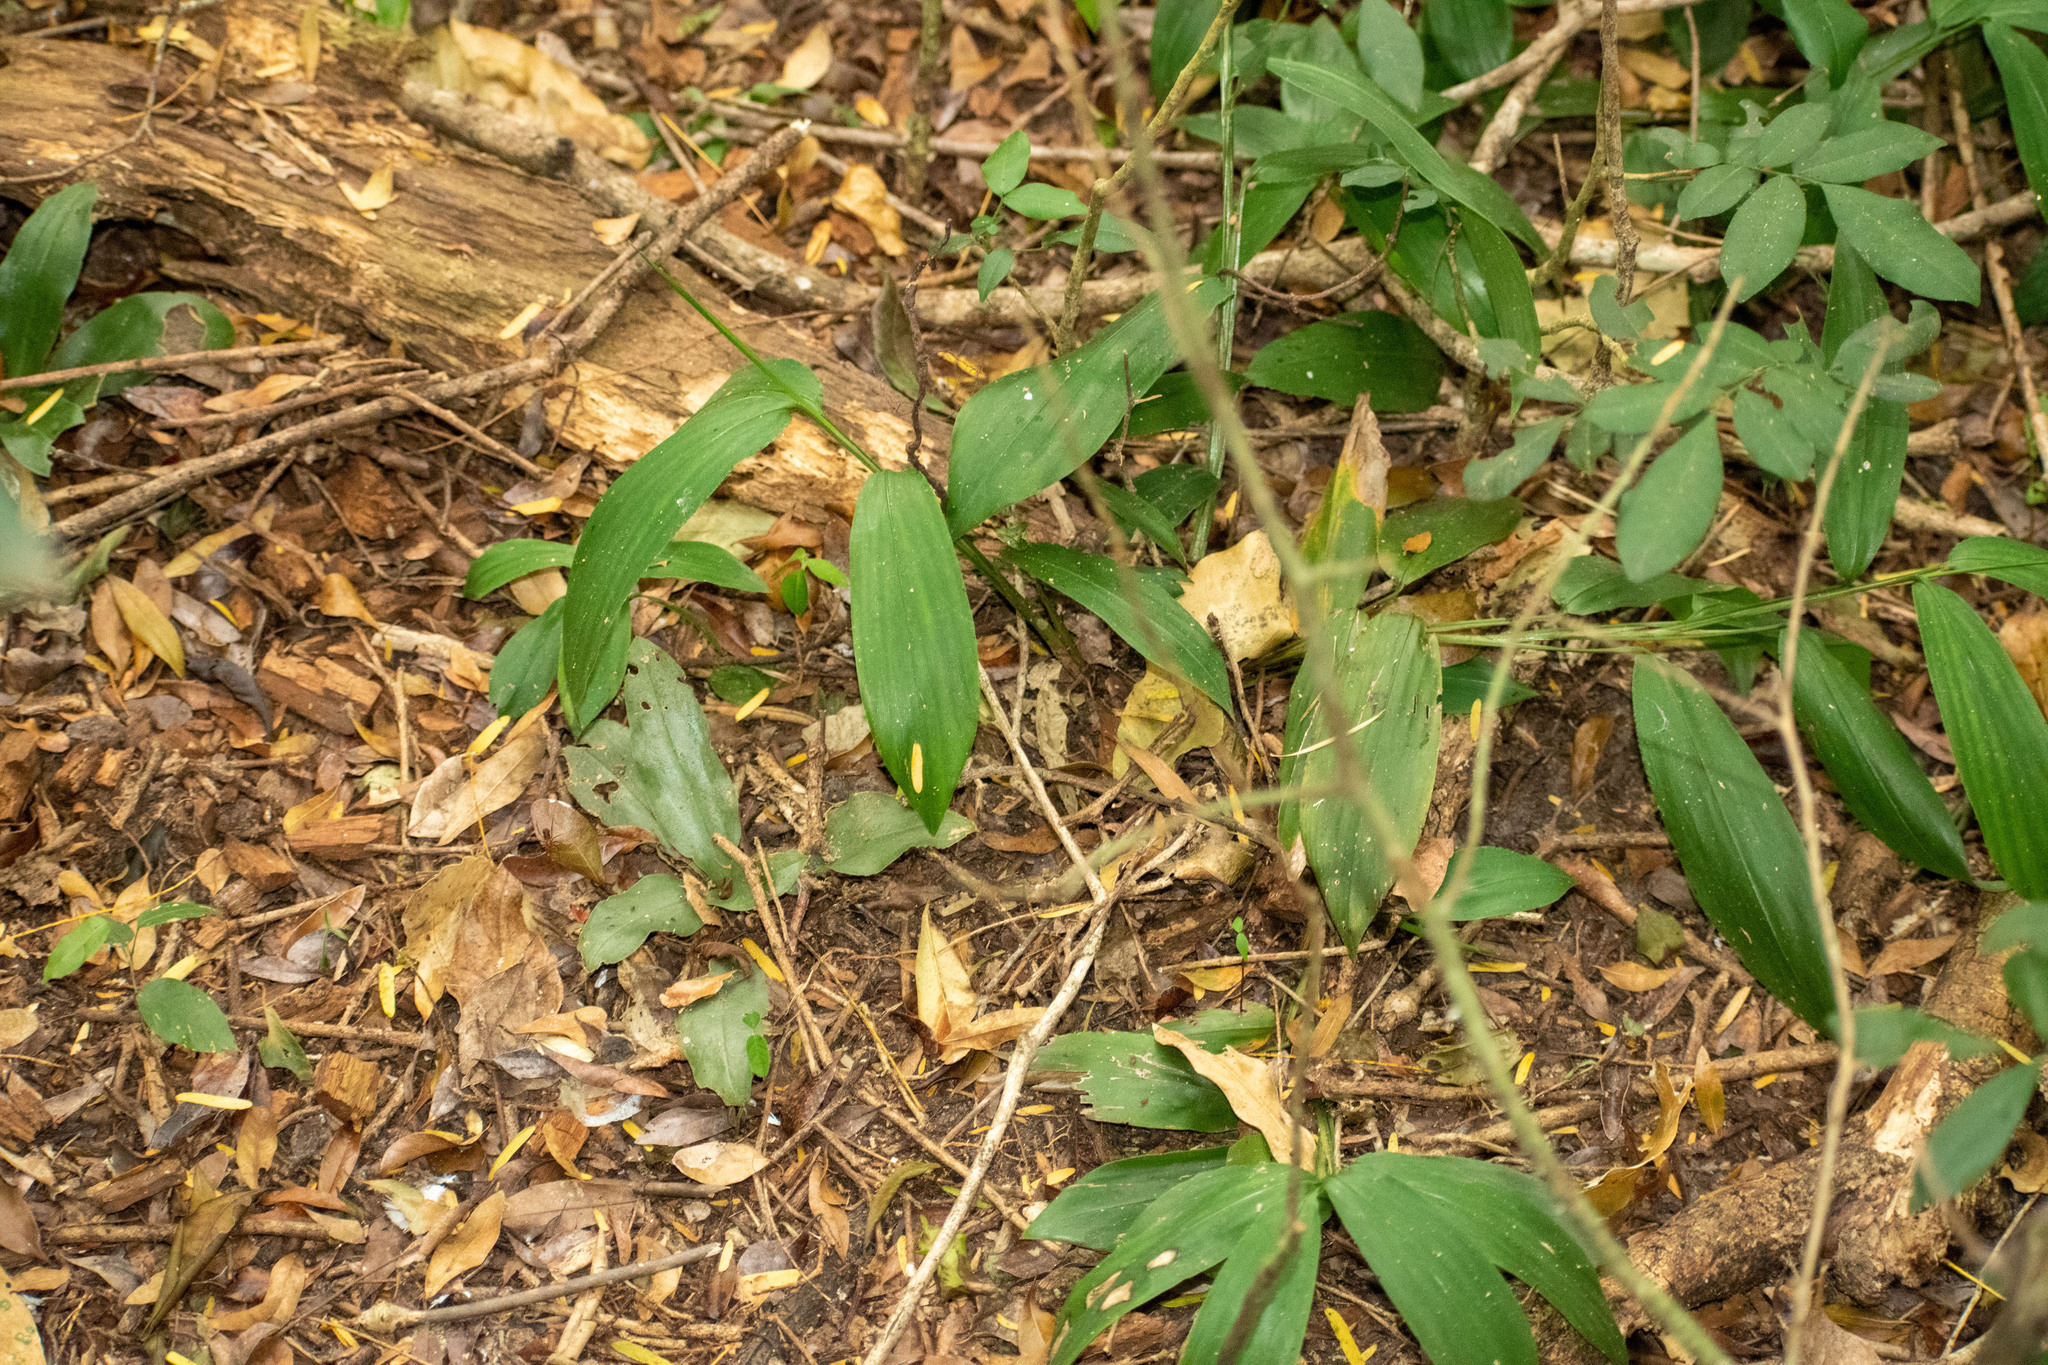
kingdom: Plantae
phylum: Tracheophyta
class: Liliopsida
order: Poales
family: Poaceae
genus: Oplismenus
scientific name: Oplismenus hirtellus
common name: Basketgrass
